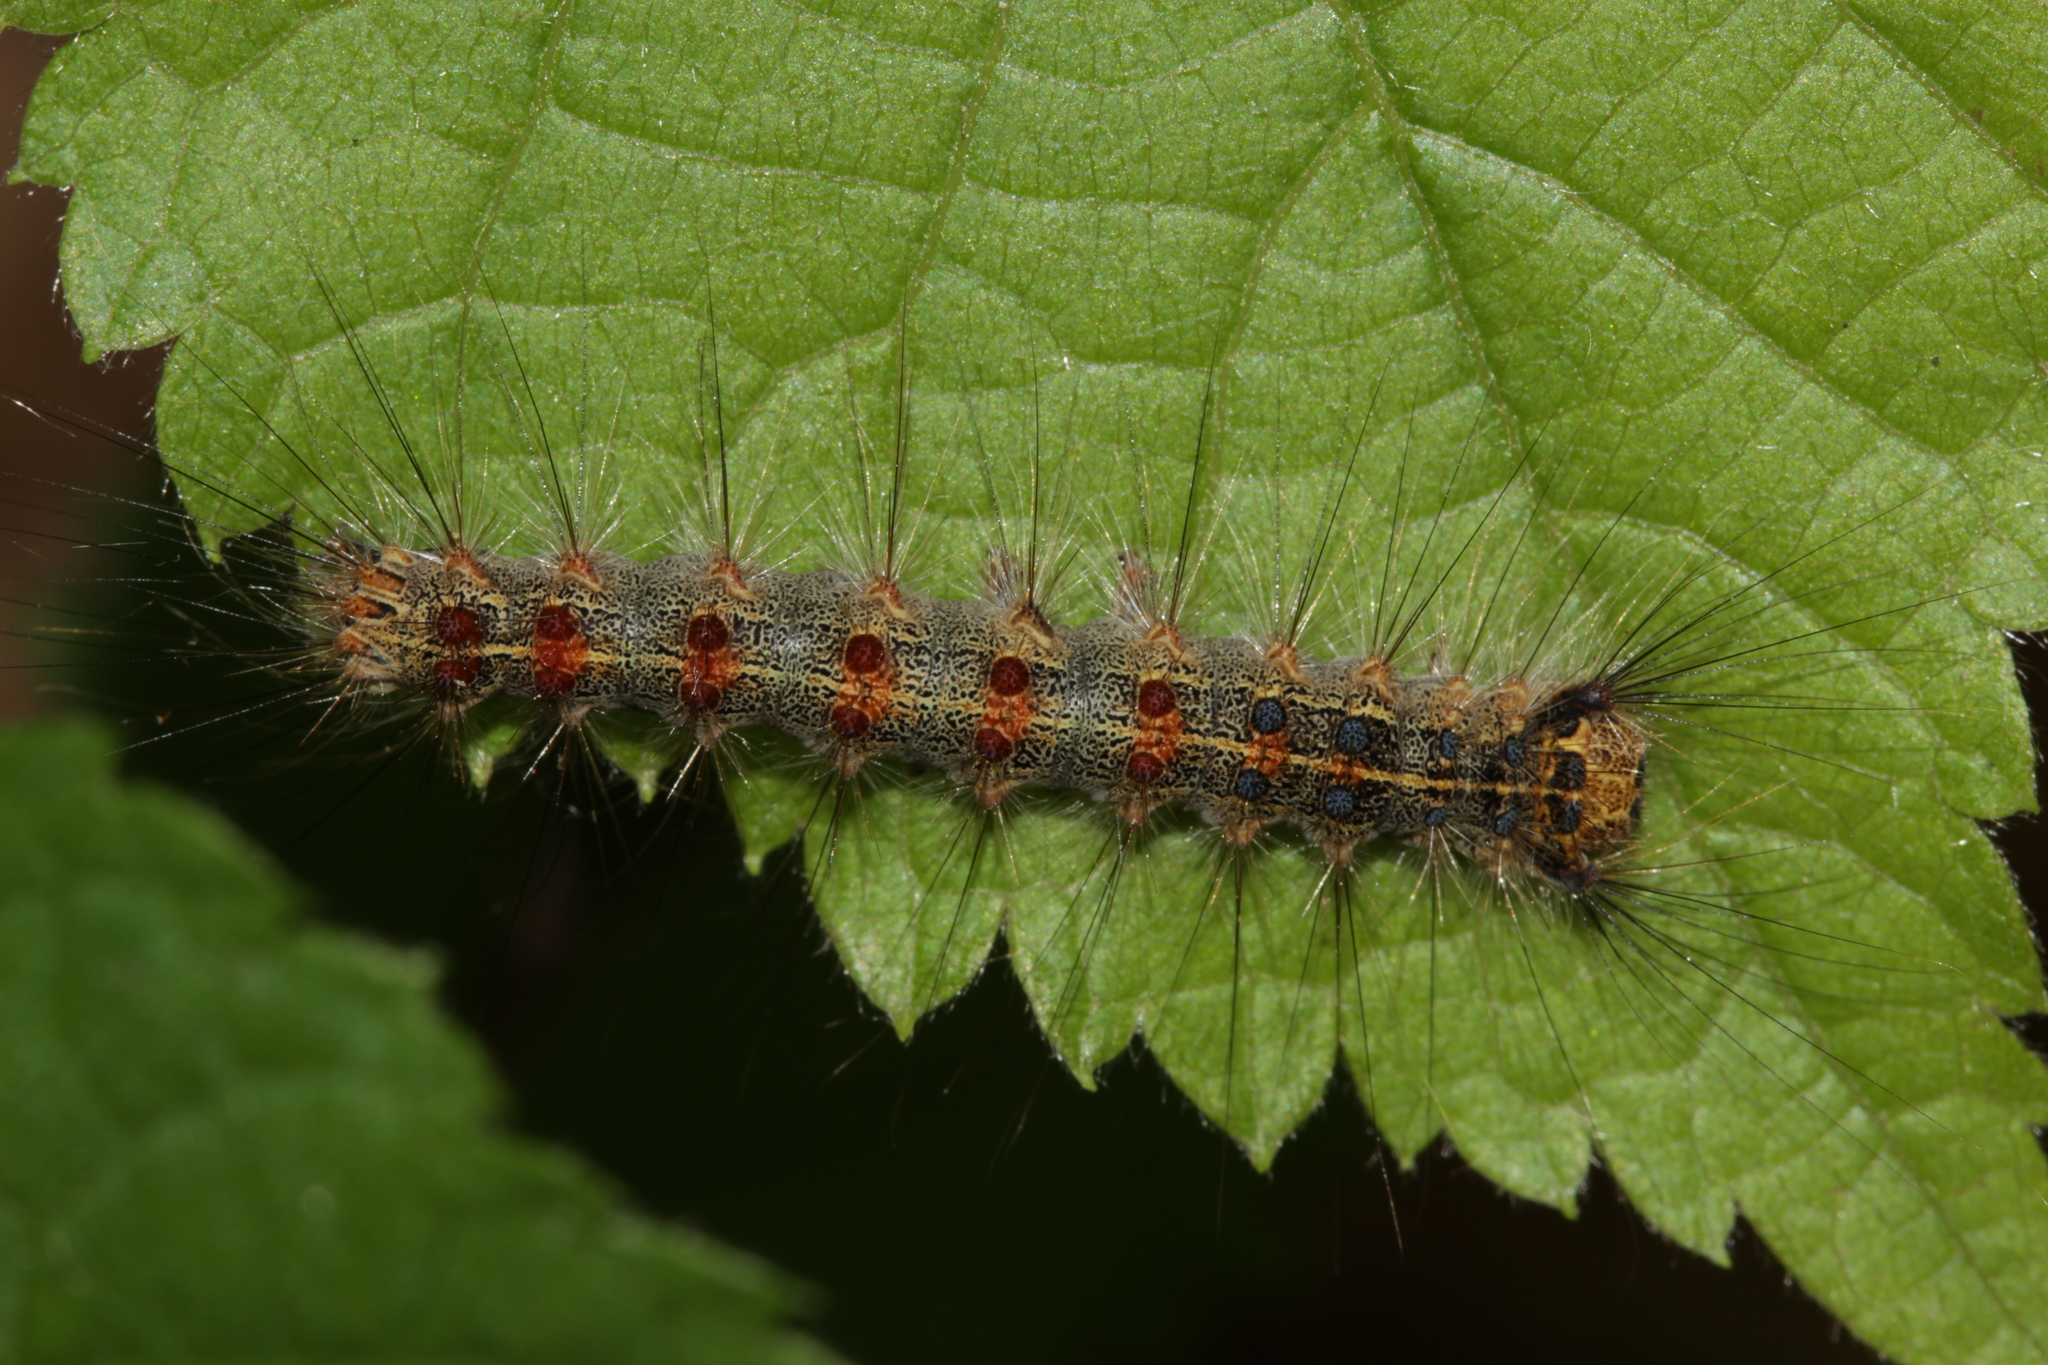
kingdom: Animalia
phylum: Arthropoda
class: Insecta
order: Lepidoptera
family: Erebidae
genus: Lymantria
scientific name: Lymantria dispar
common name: Gypsy moth
